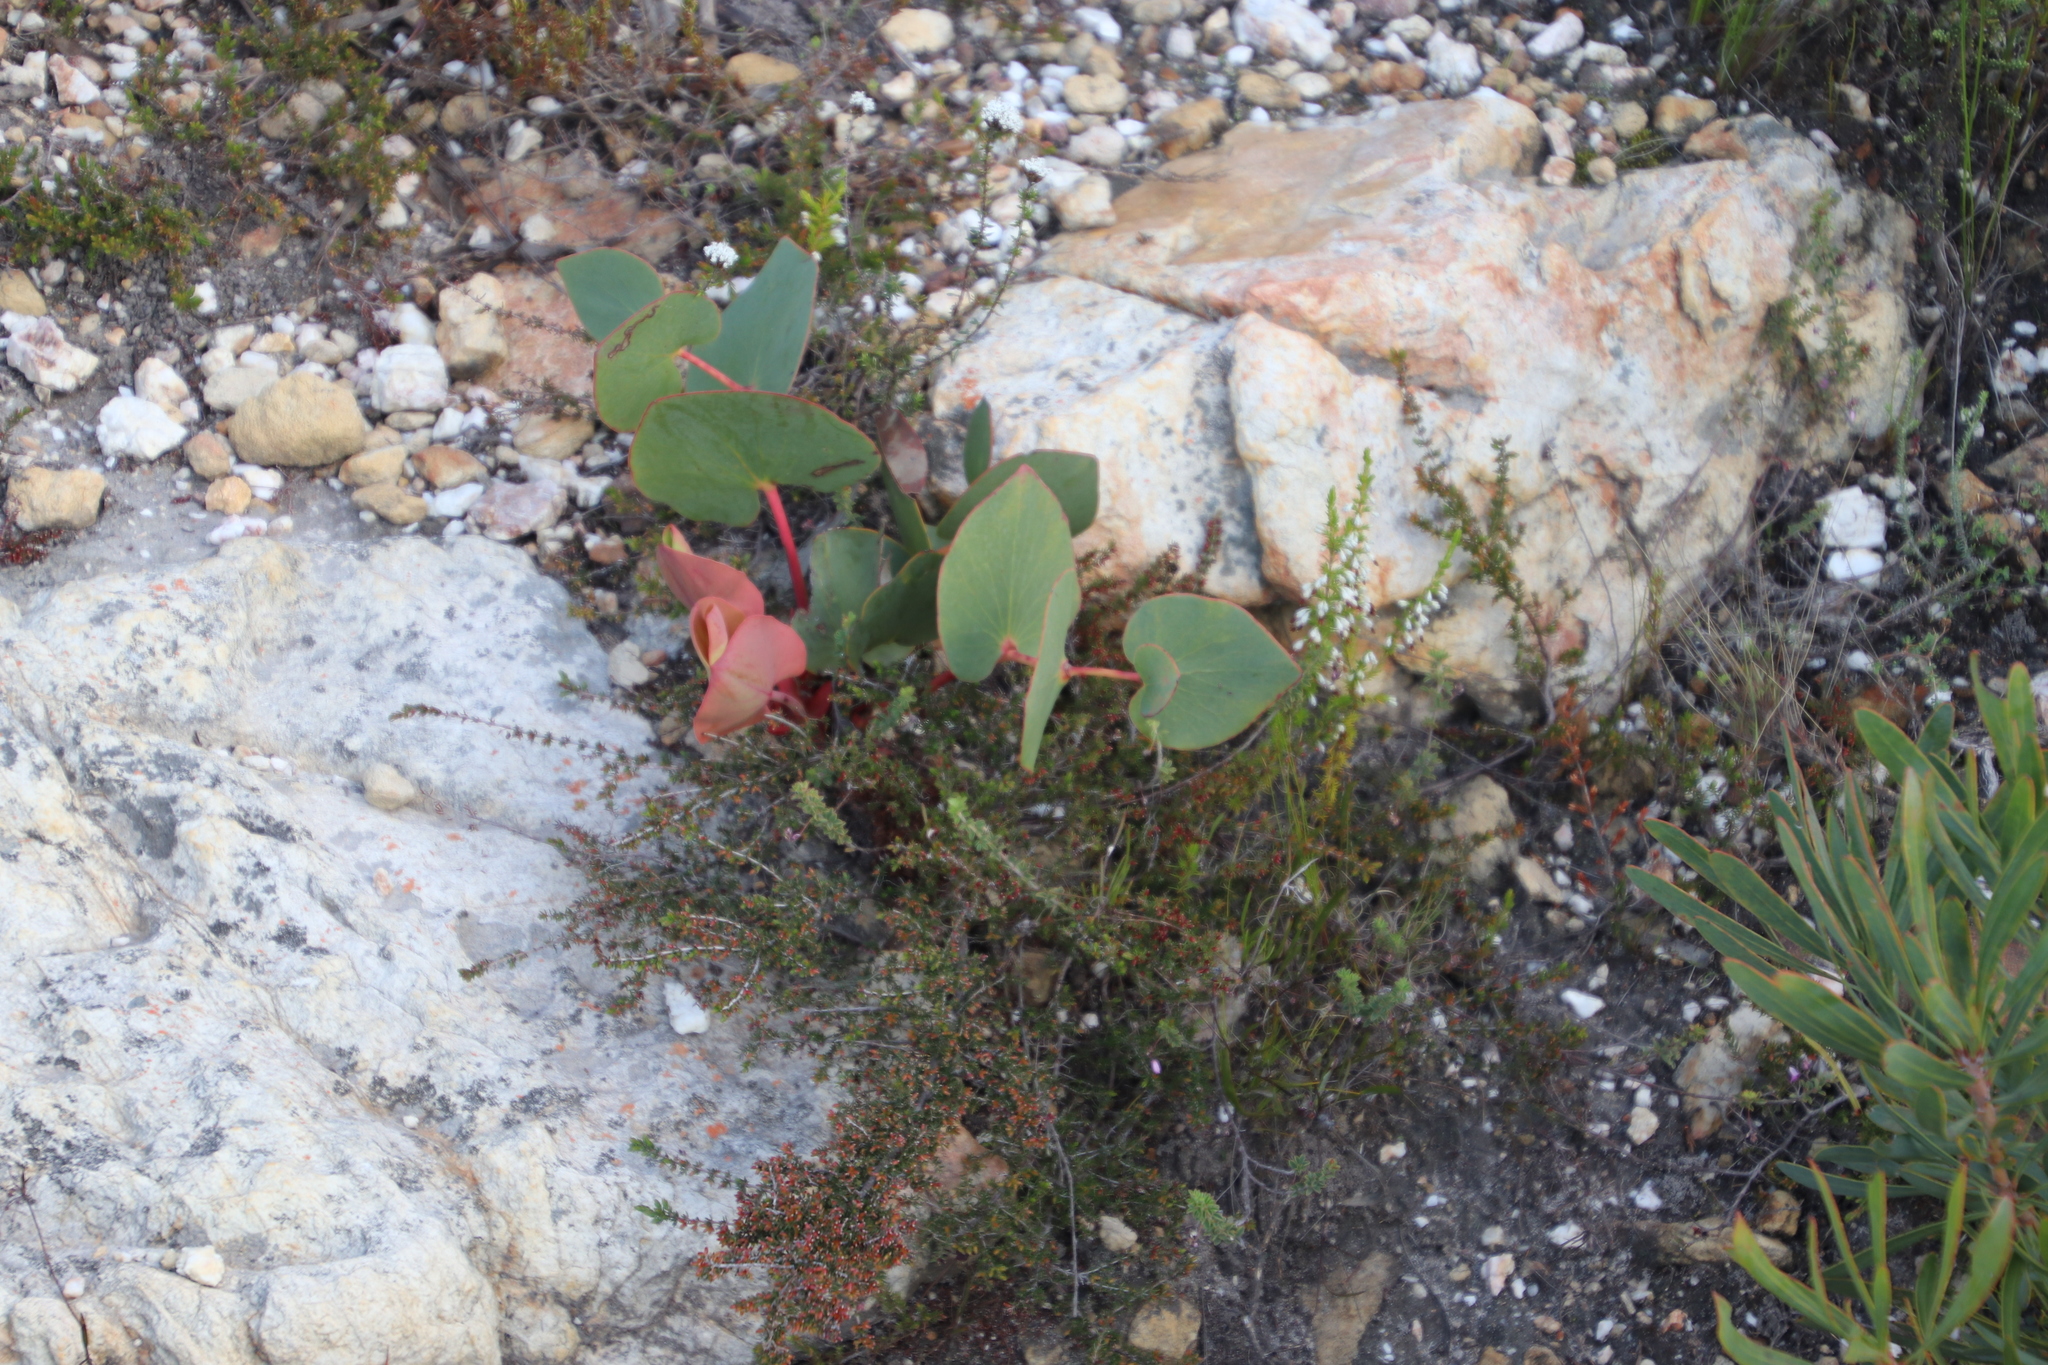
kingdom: Plantae
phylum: Tracheophyta
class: Magnoliopsida
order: Proteales
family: Proteaceae
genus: Protea
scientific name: Protea cordata
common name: Heart-leaf sugarbush
